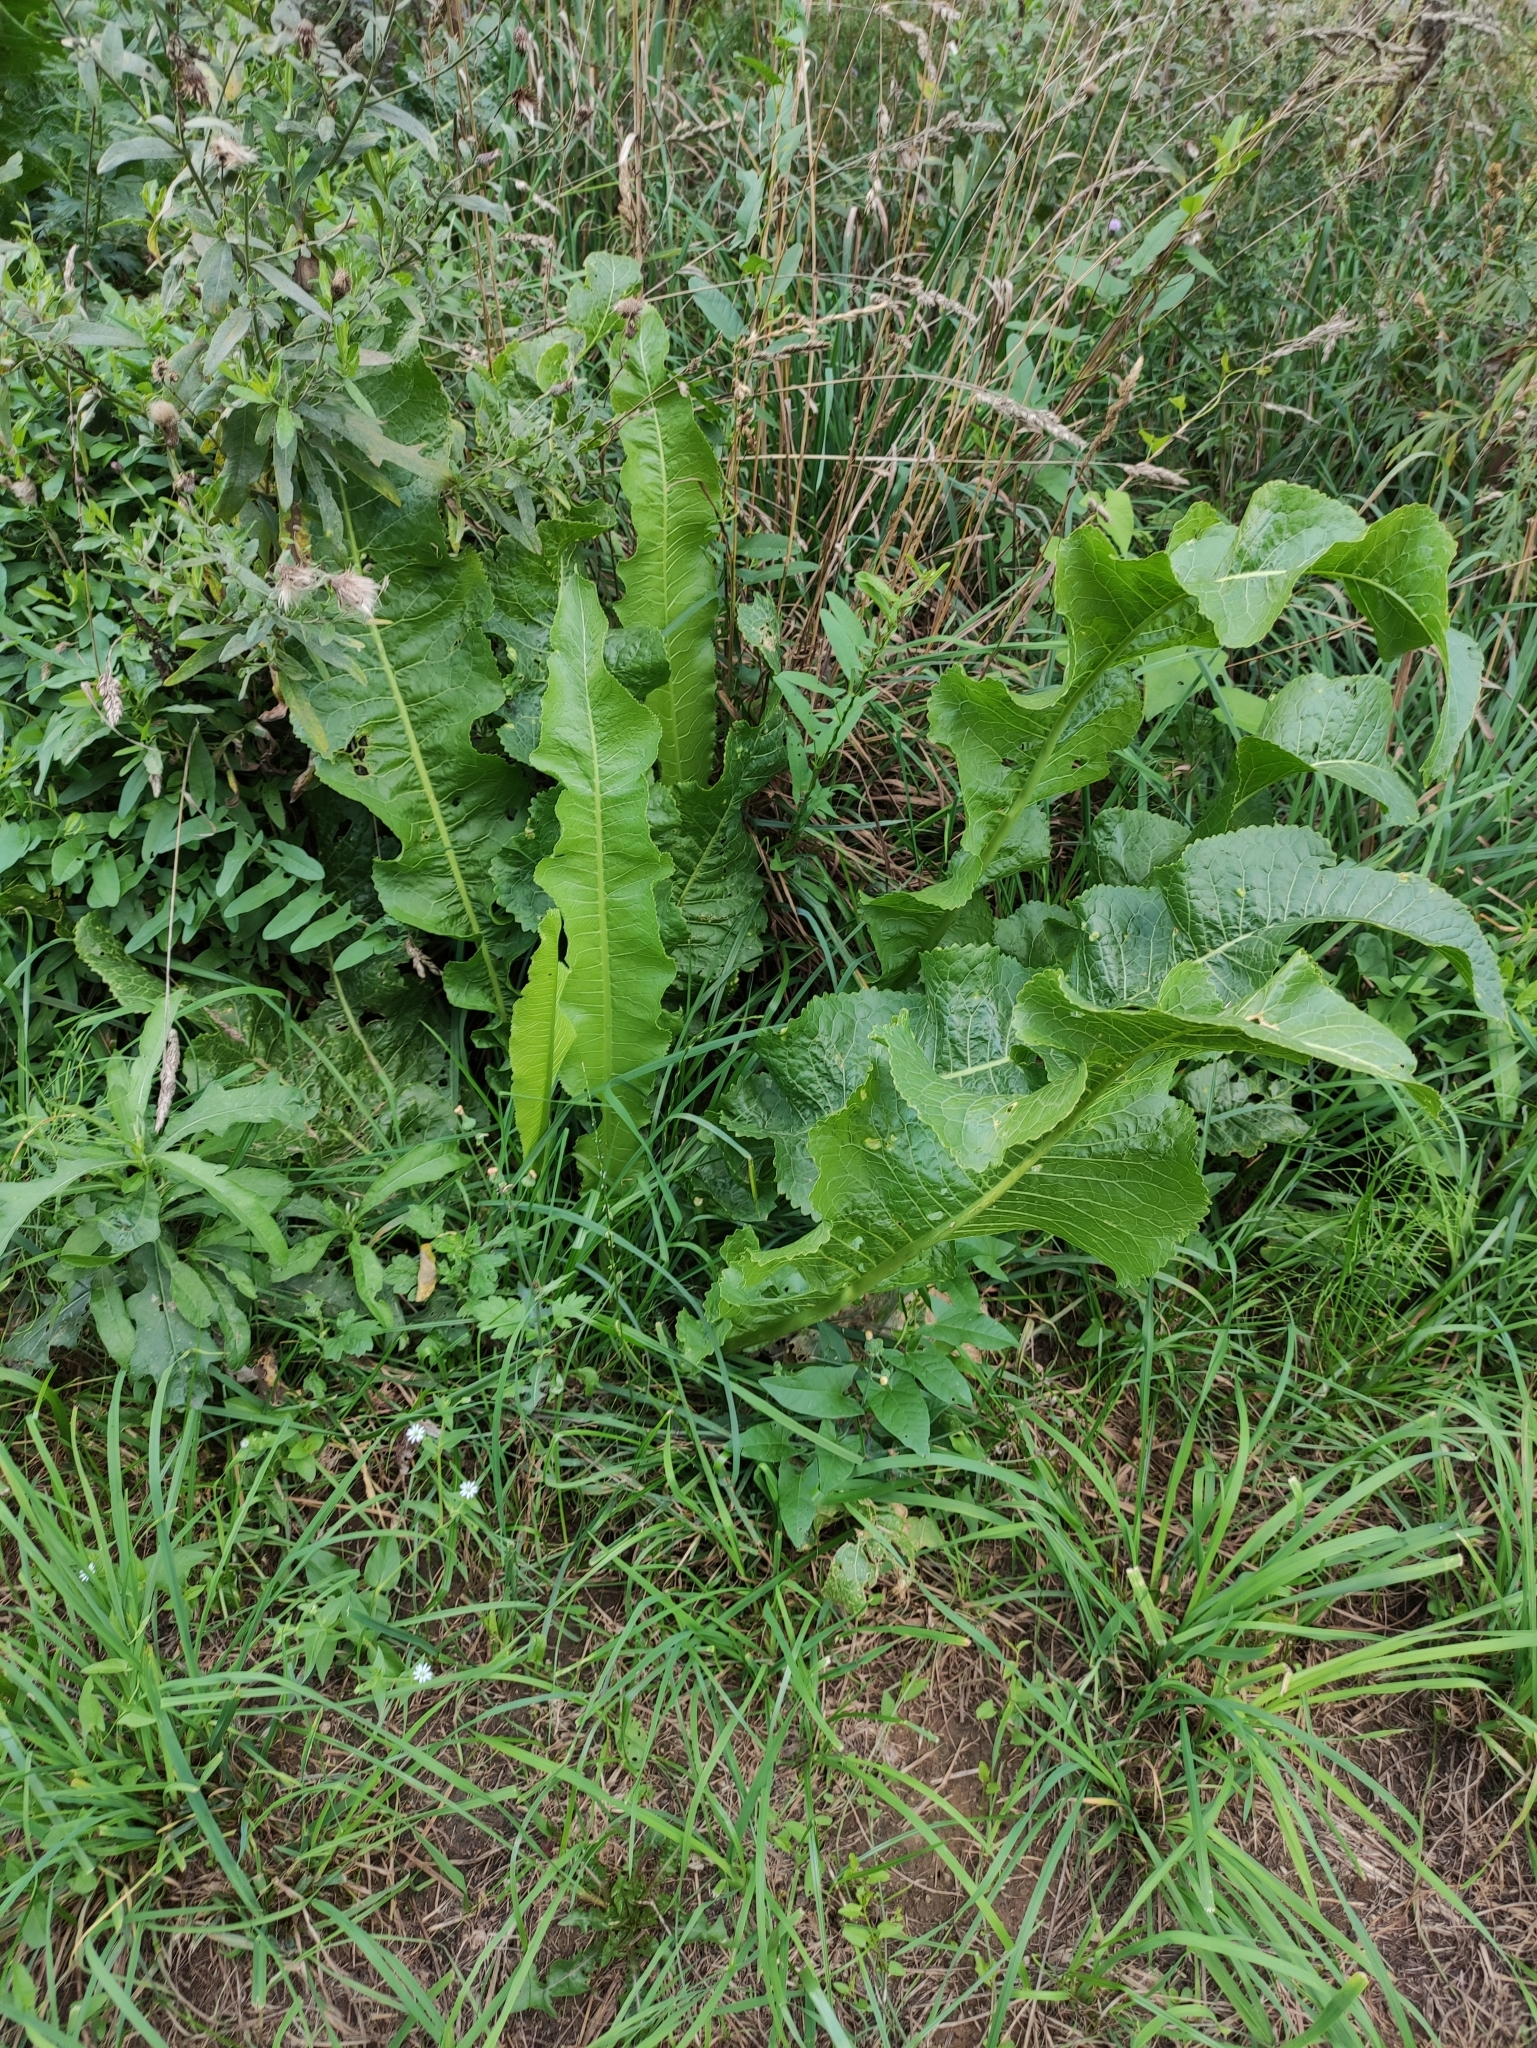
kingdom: Plantae
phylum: Tracheophyta
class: Magnoliopsida
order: Brassicales
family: Brassicaceae
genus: Armoracia
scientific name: Armoracia rusticana
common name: Horseradish
